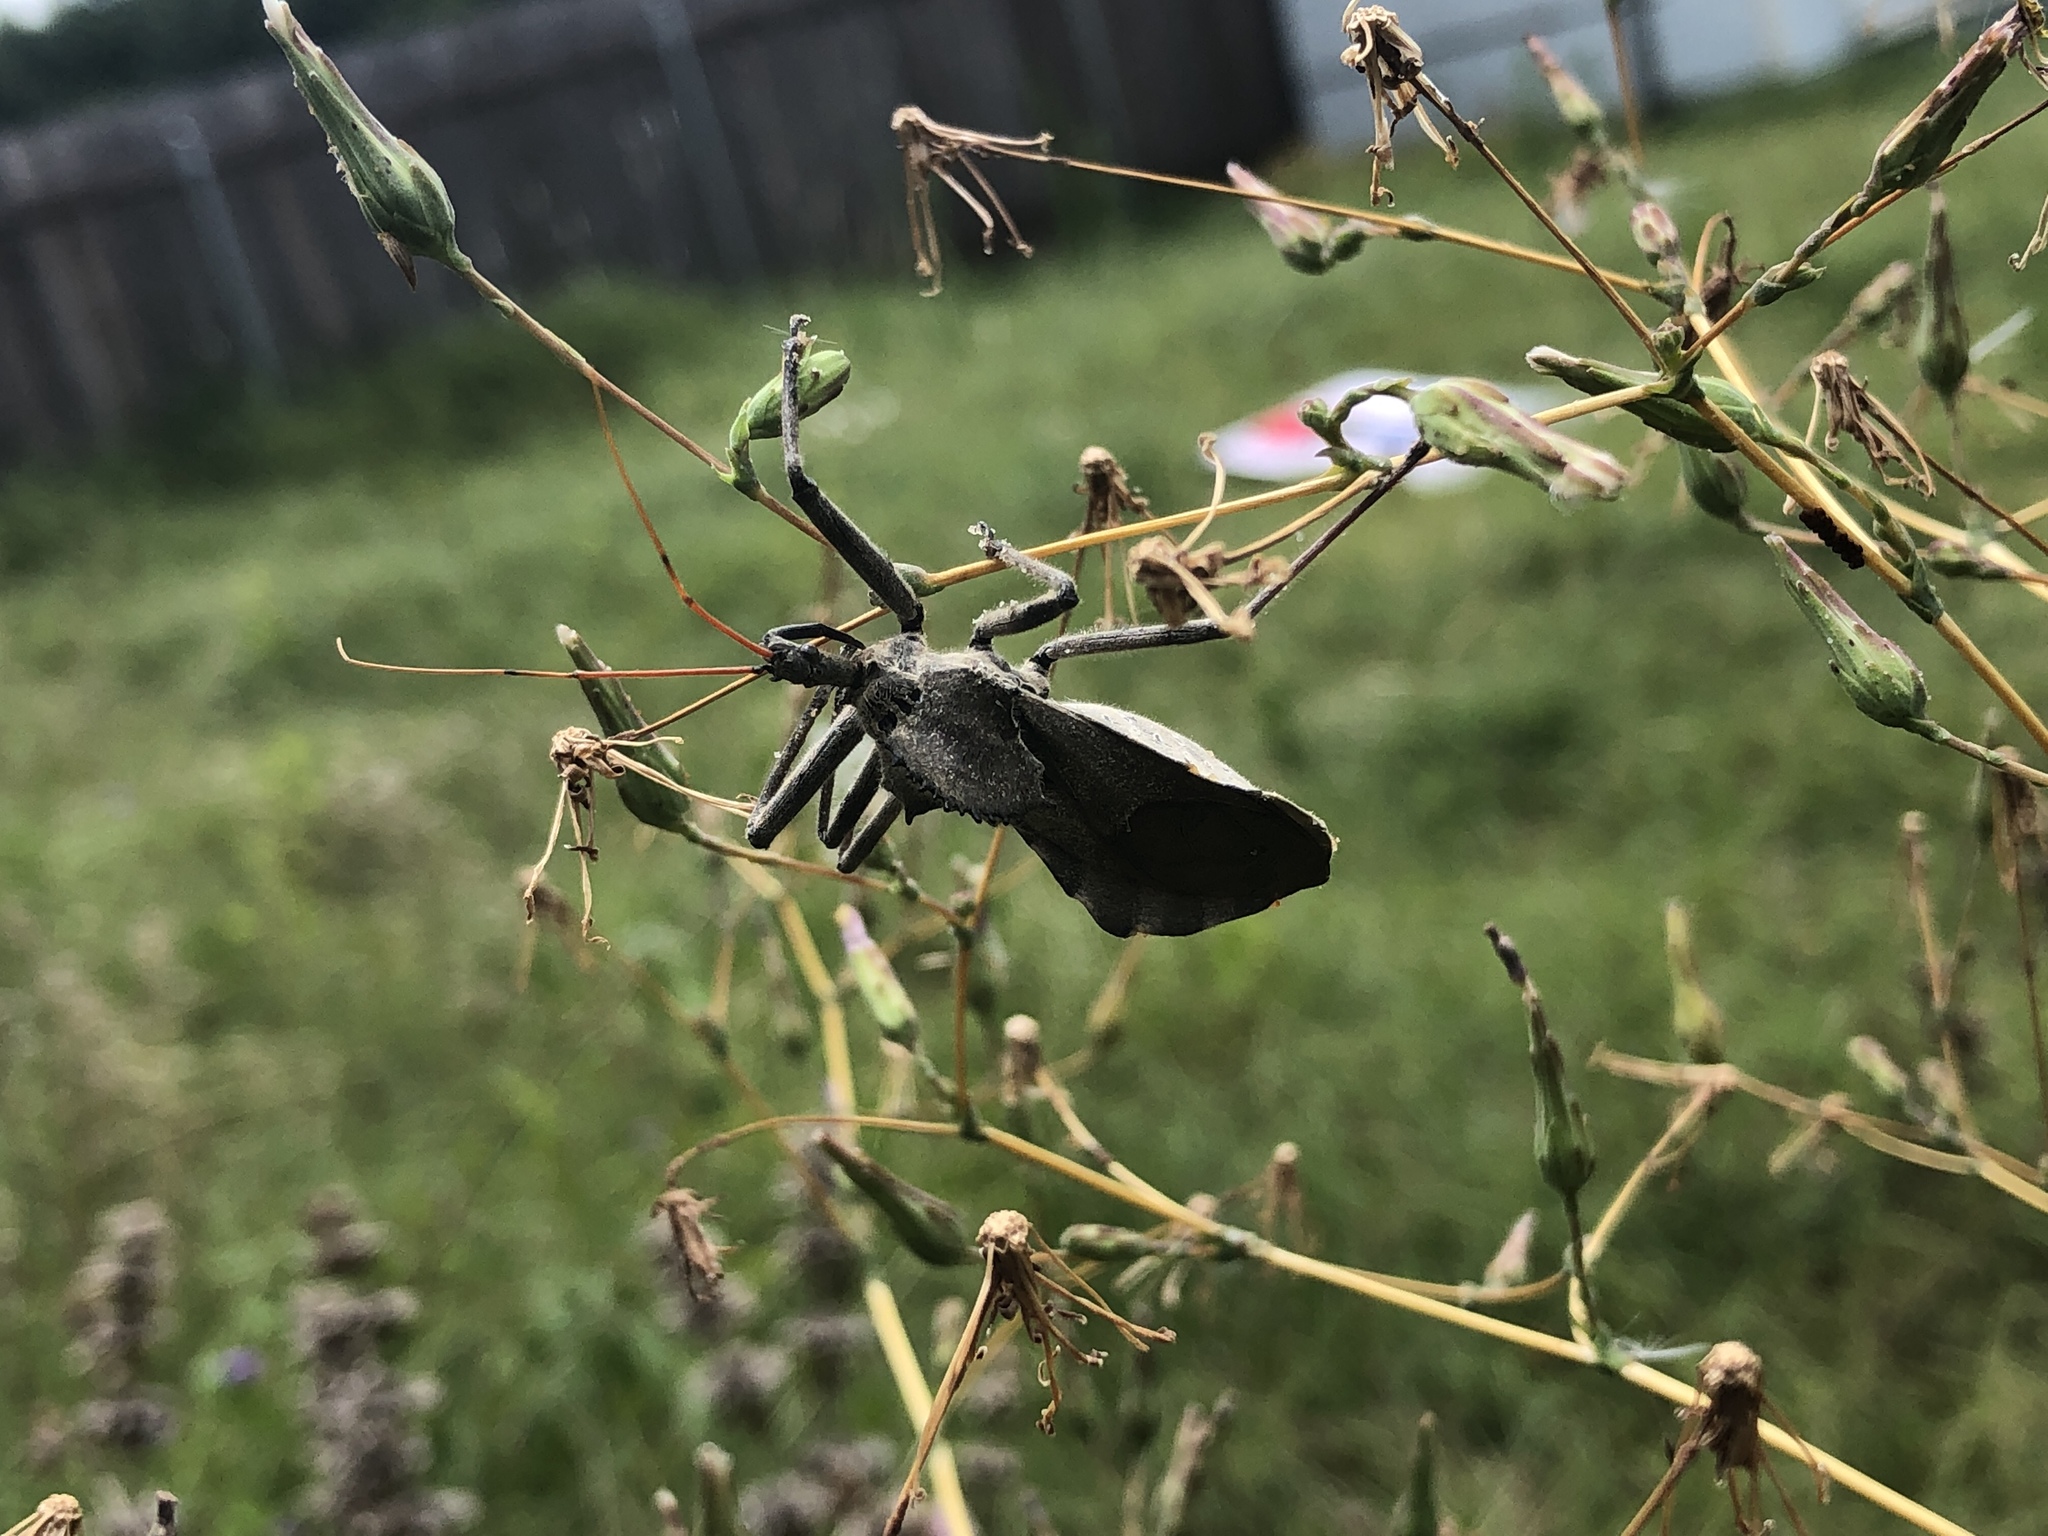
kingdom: Animalia
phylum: Arthropoda
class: Insecta
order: Hemiptera
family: Reduviidae
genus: Arilus
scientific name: Arilus cristatus
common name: North american wheel bug
